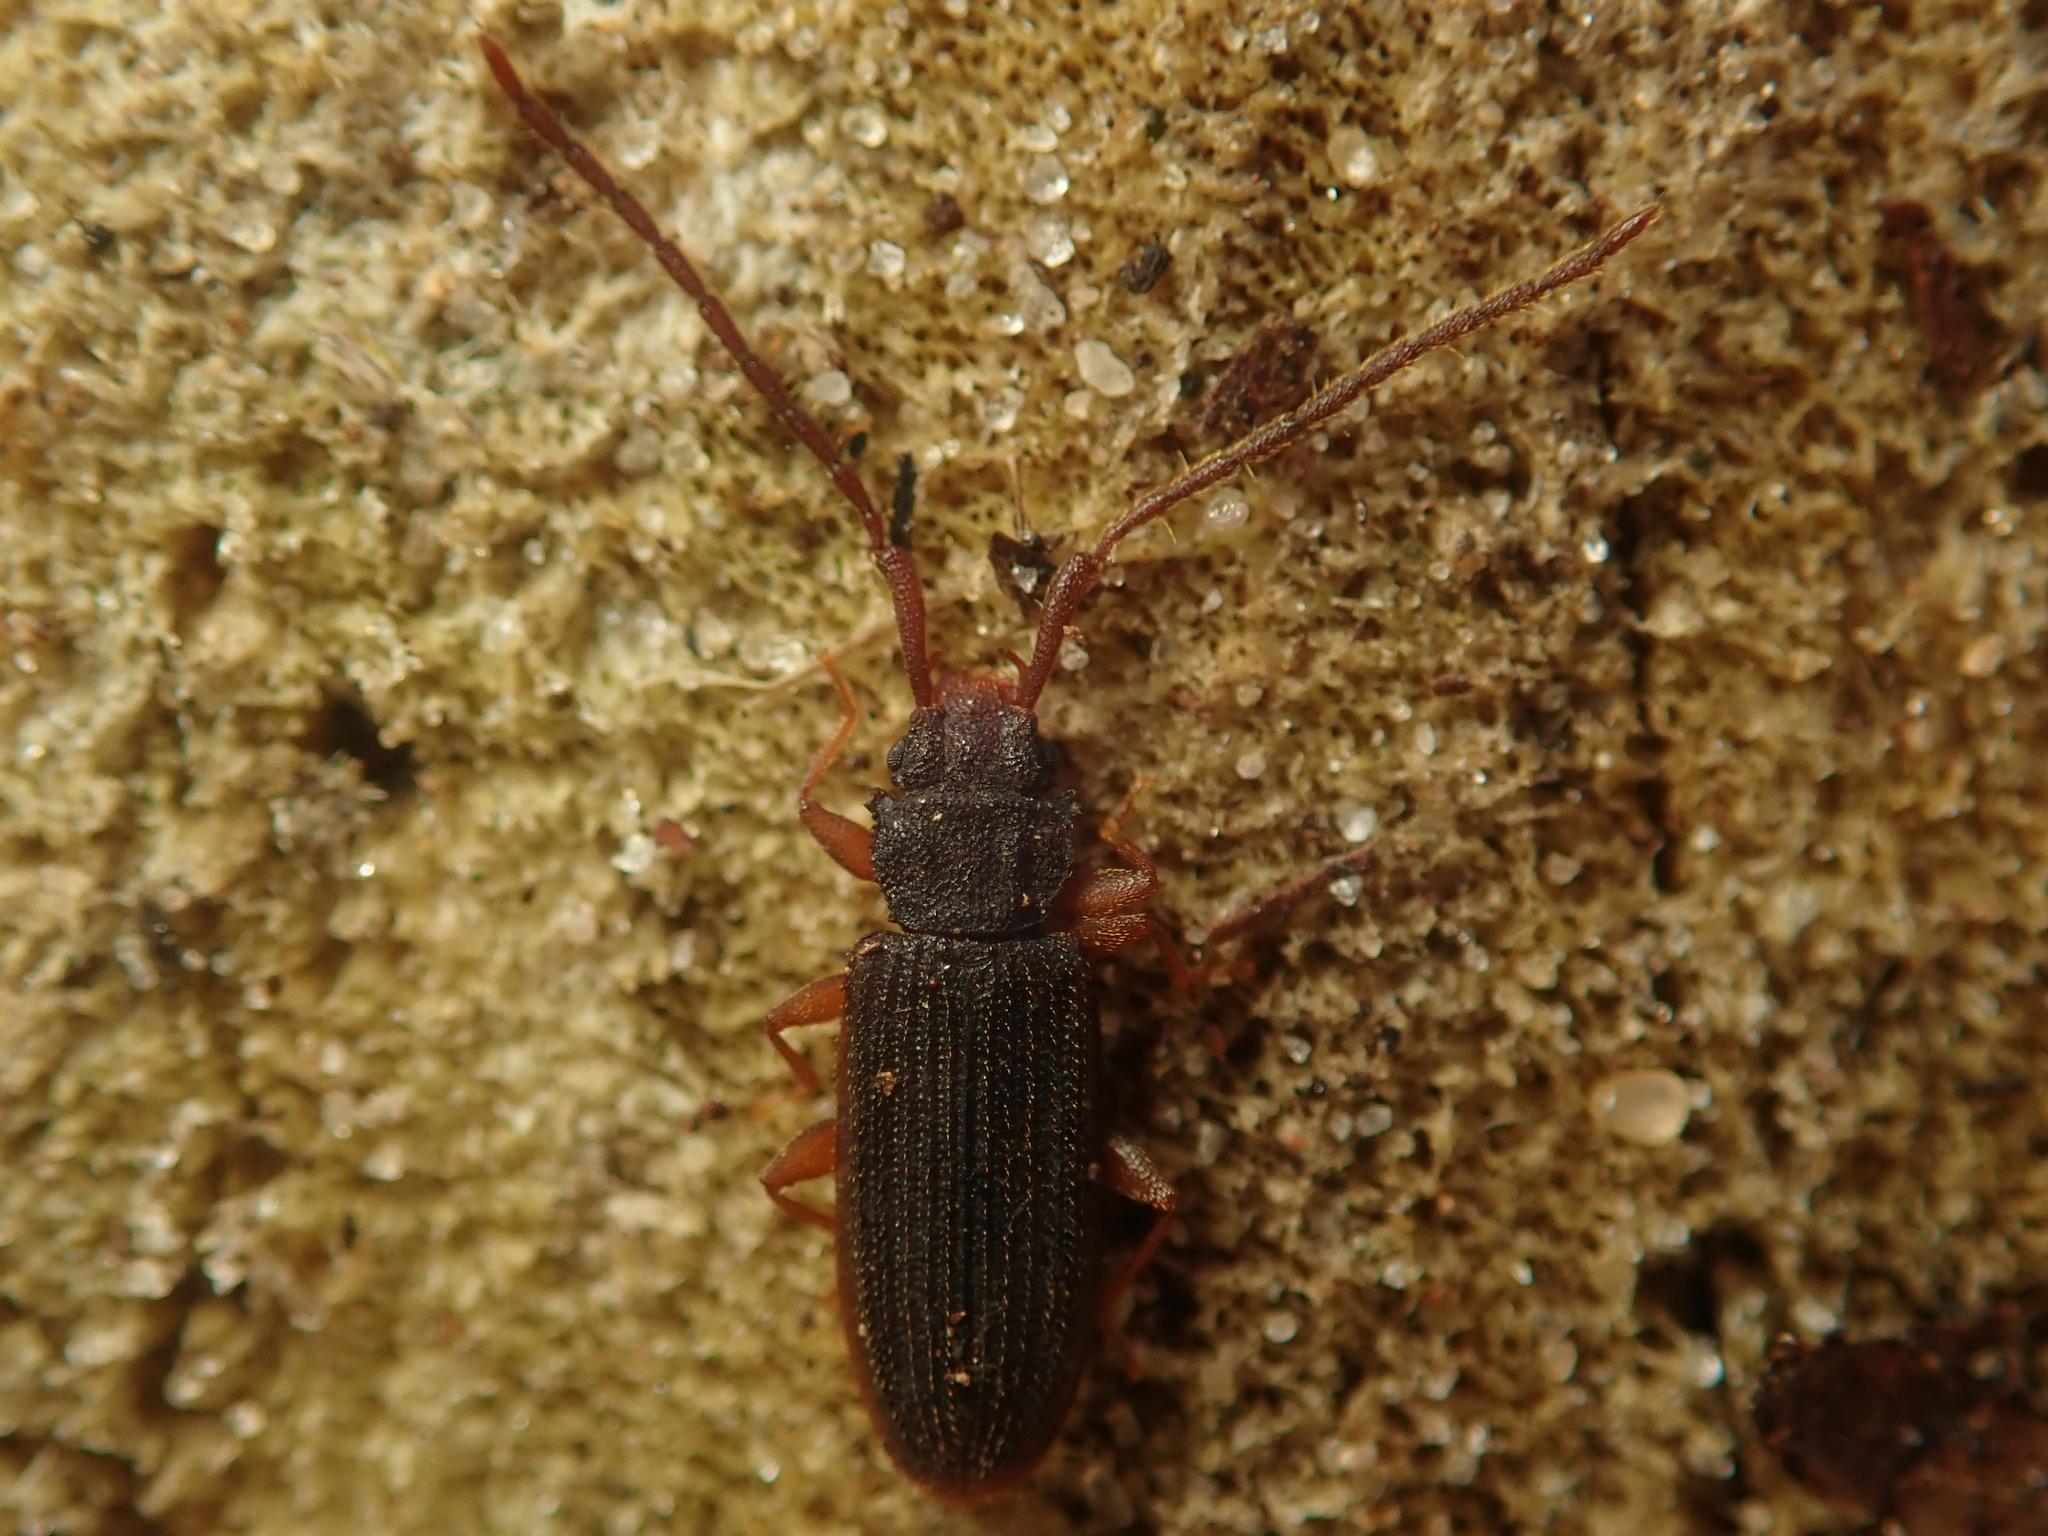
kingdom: Animalia
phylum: Arthropoda
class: Insecta
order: Coleoptera
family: Silvanidae
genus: Uleiota
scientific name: Uleiota planatus
